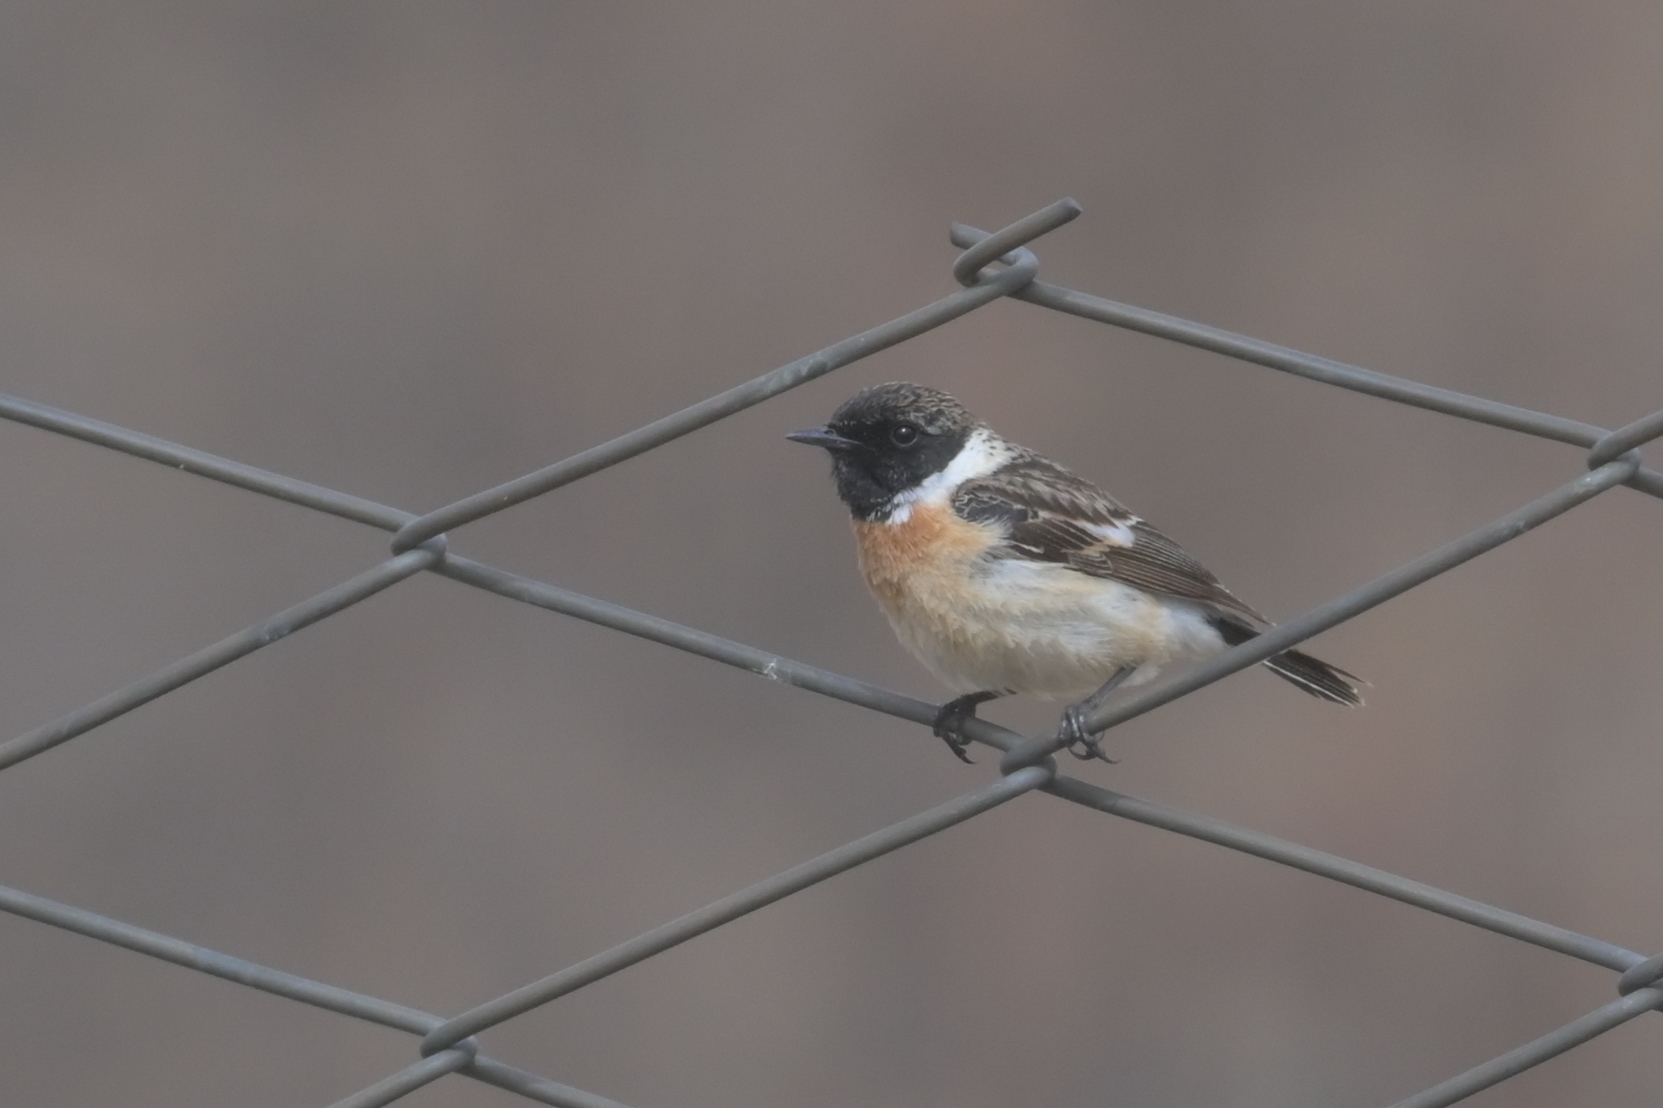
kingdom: Animalia
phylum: Chordata
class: Aves
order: Passeriformes
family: Muscicapidae
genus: Saxicola
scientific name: Saxicola maurus
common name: Siberian stonechat
